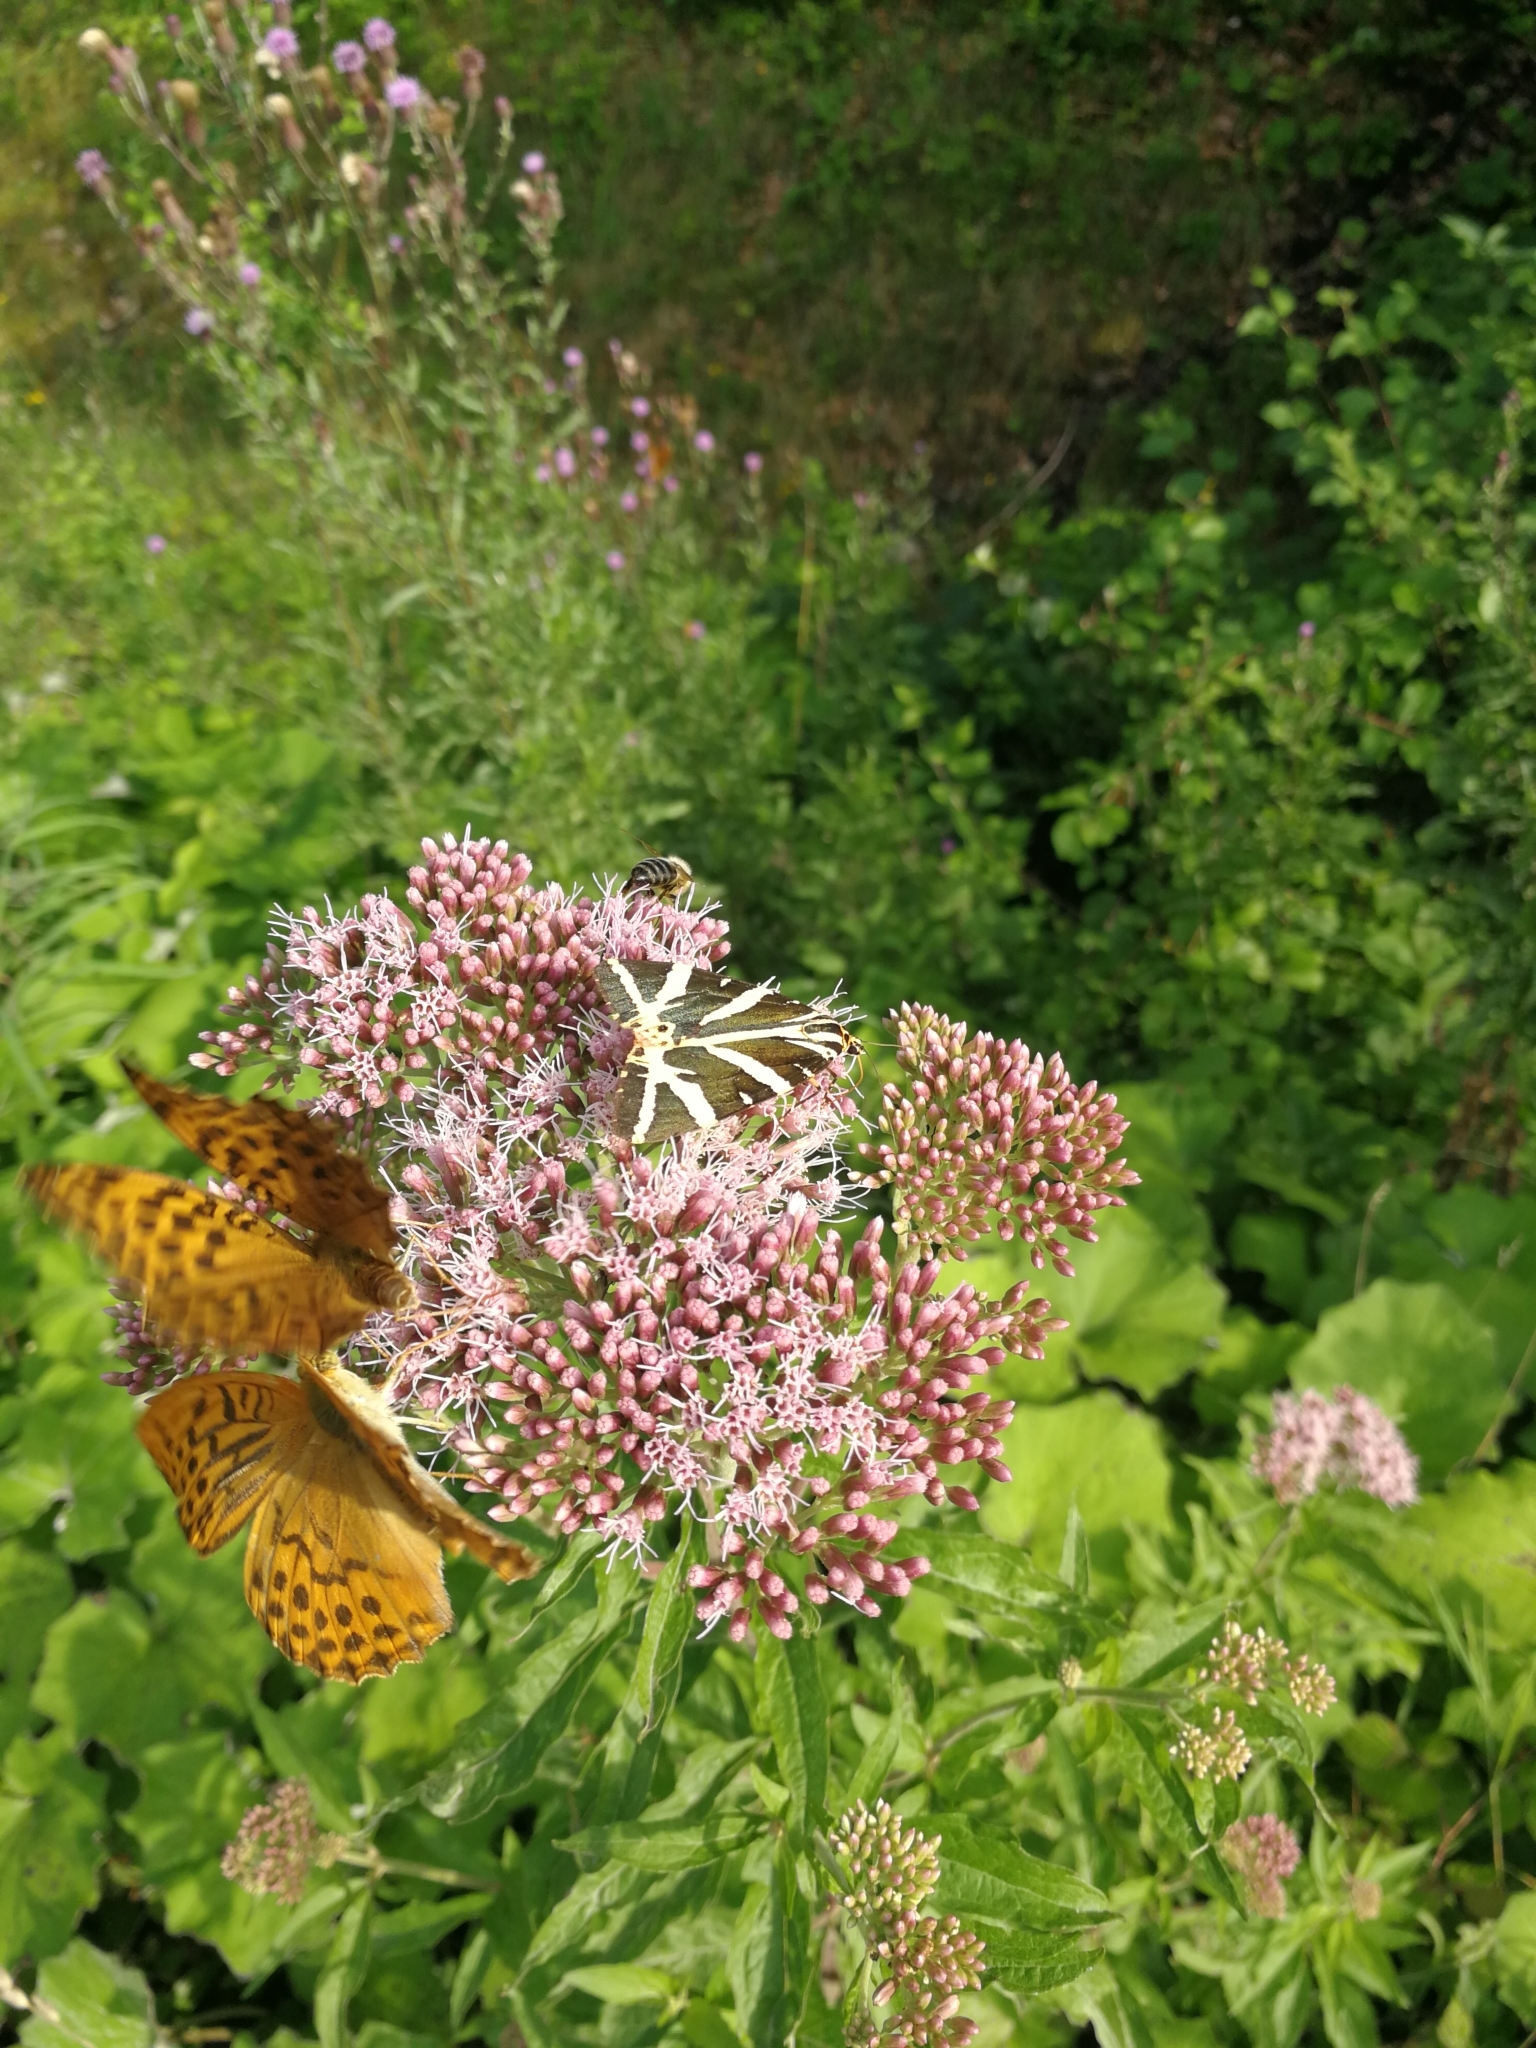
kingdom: Animalia
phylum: Arthropoda
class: Insecta
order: Lepidoptera
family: Nymphalidae
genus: Argynnis
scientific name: Argynnis paphia
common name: Silver-washed fritillary
